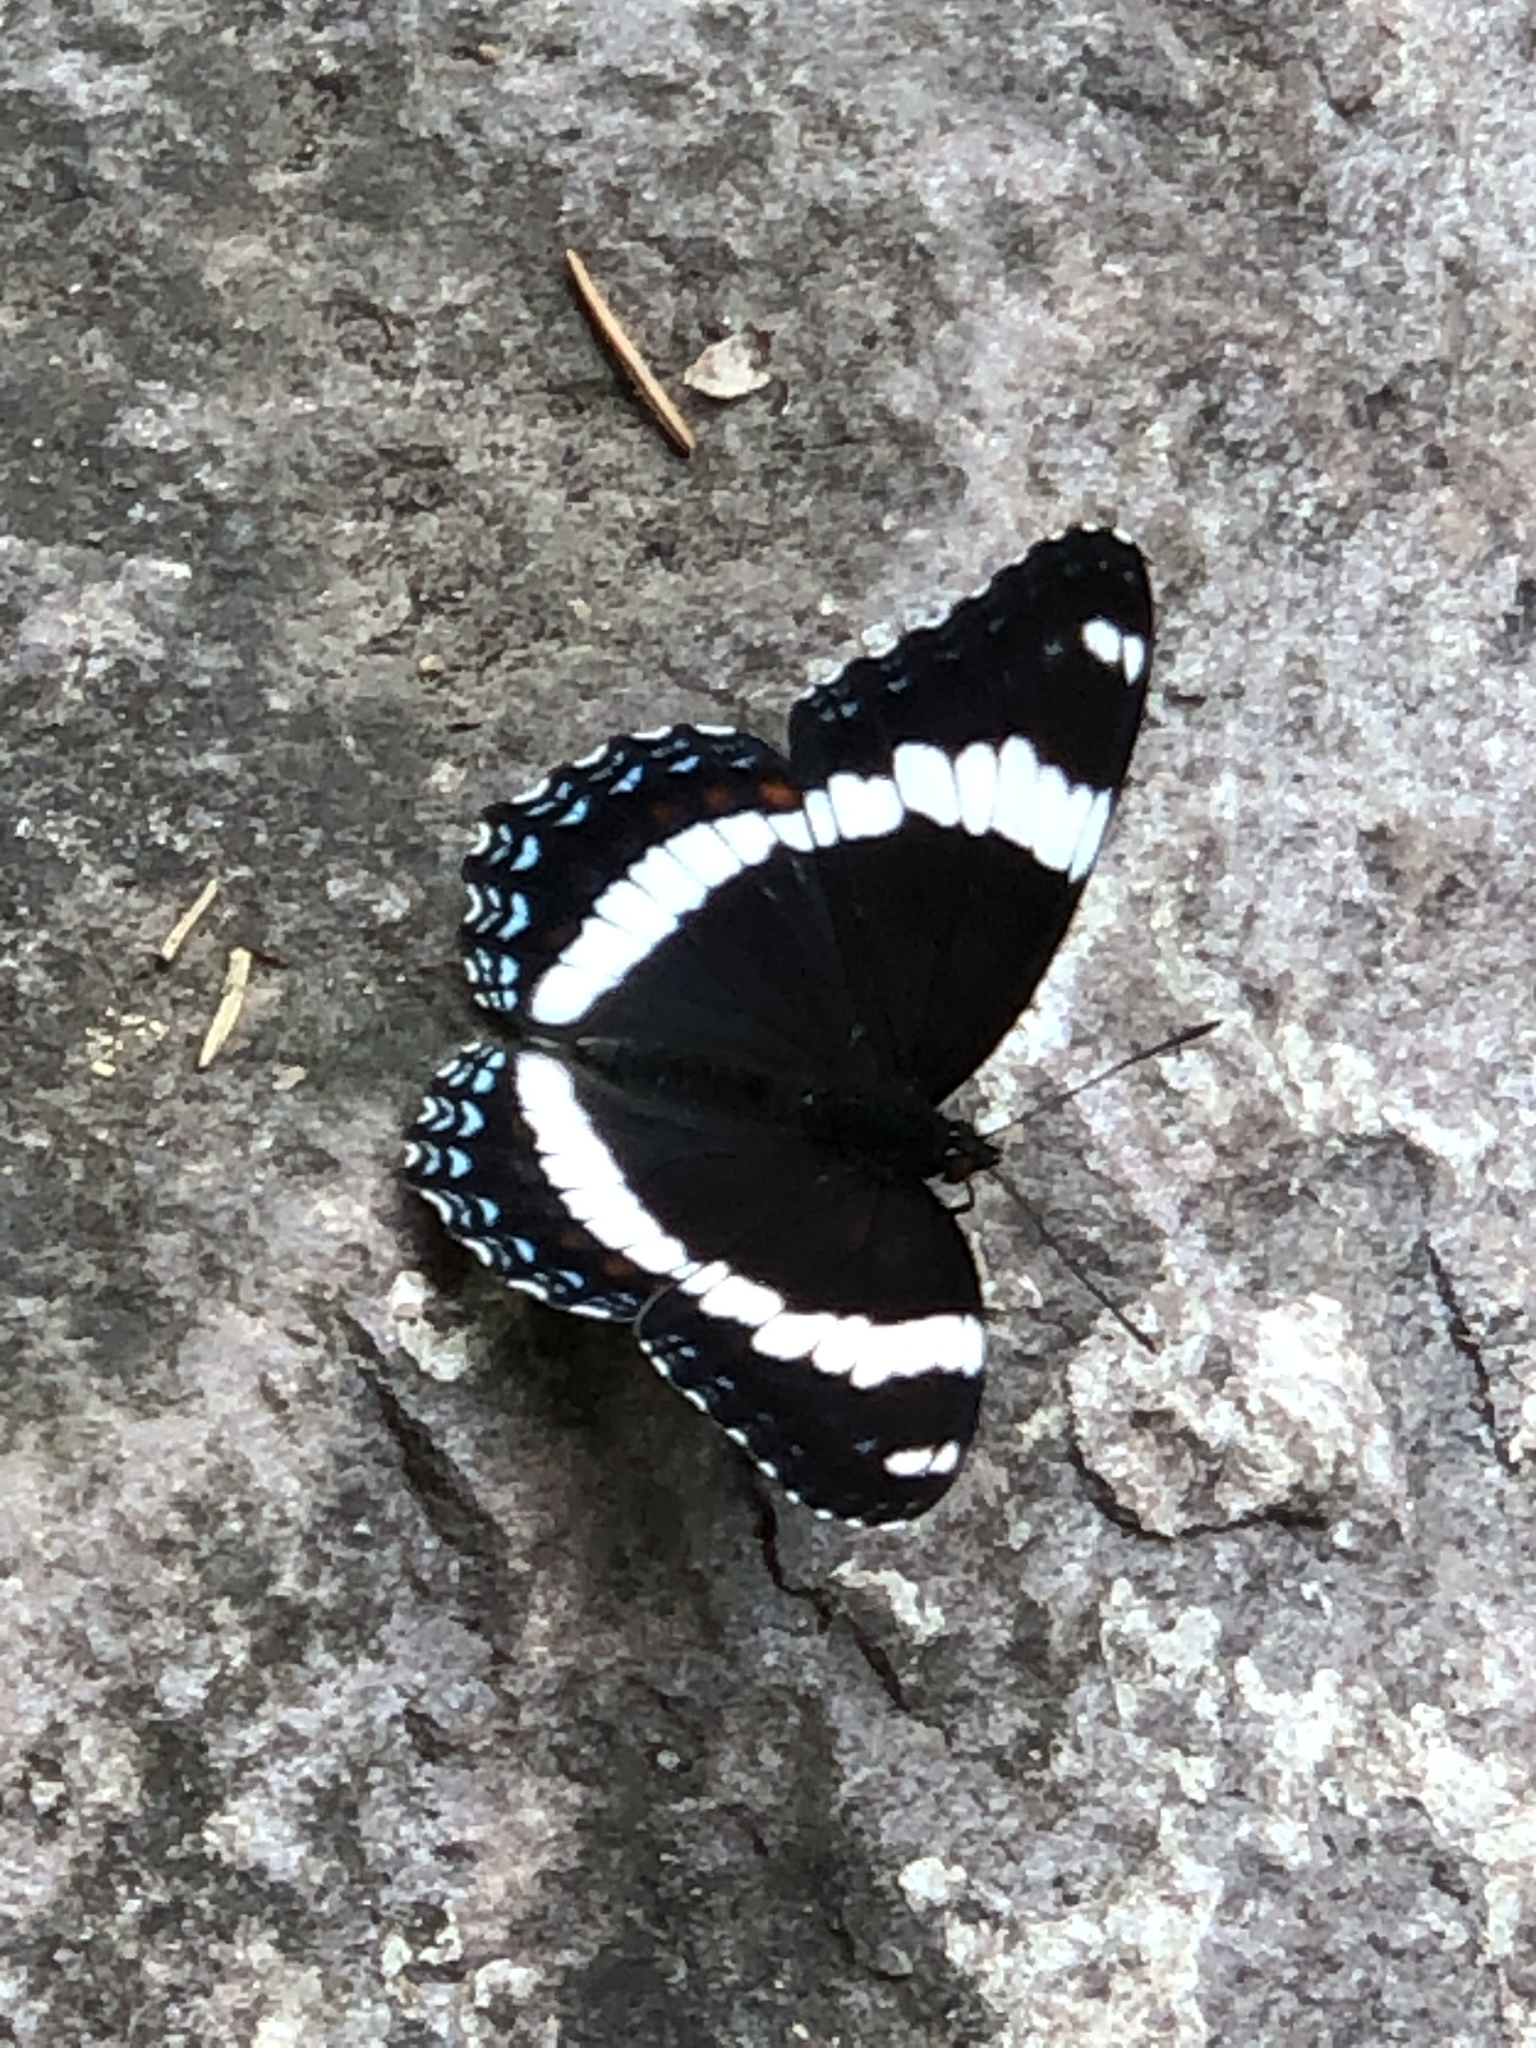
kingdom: Animalia
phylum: Arthropoda
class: Insecta
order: Lepidoptera
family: Nymphalidae
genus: Limenitis
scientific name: Limenitis arthemis
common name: Red-spotted admiral
